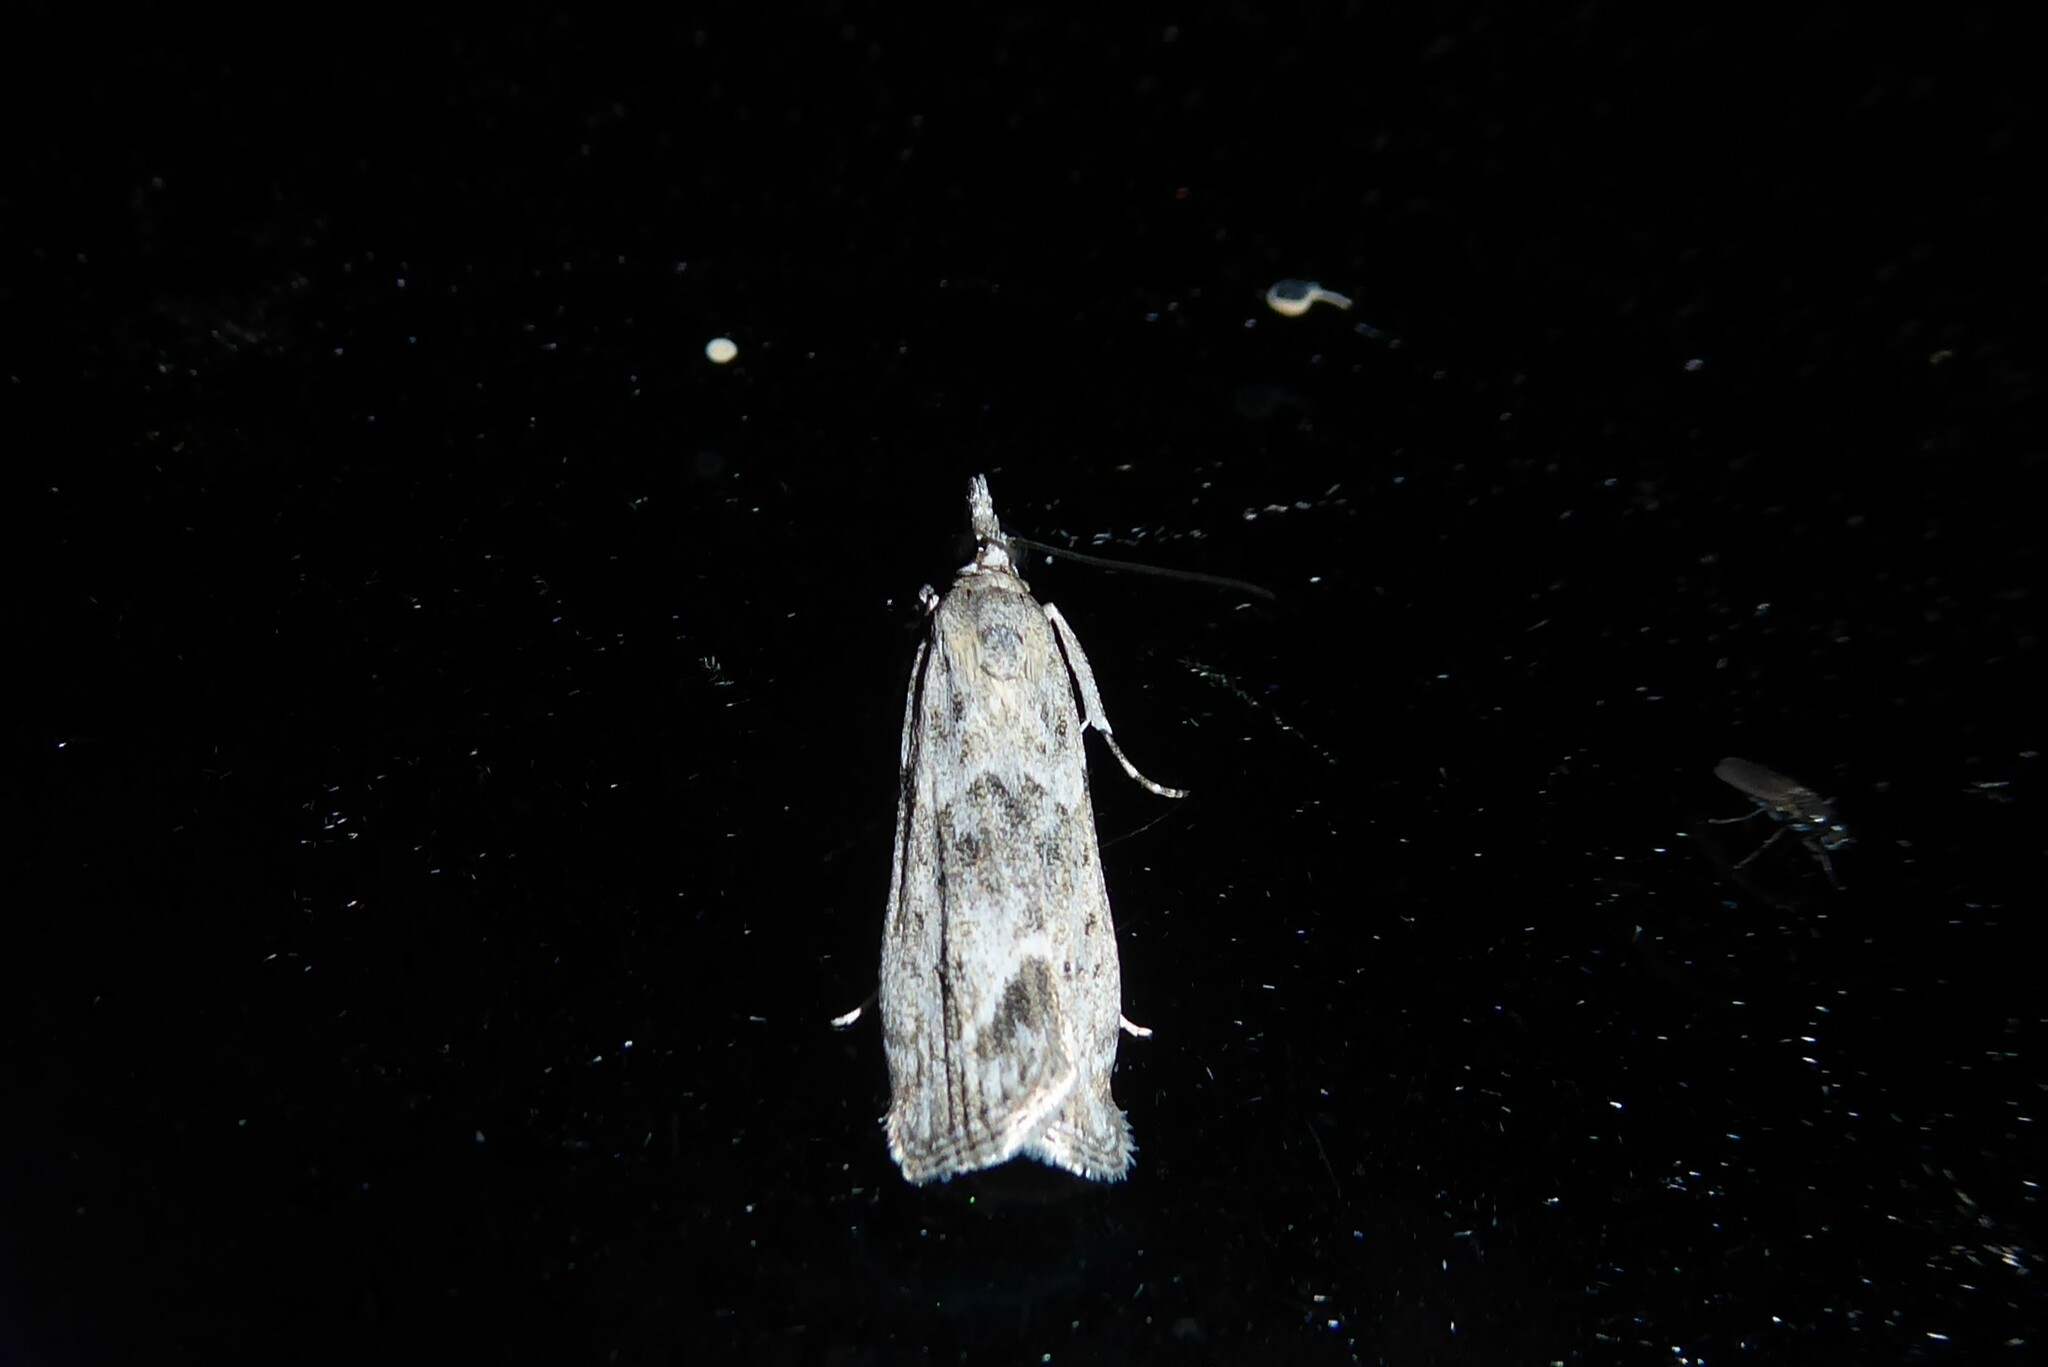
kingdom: Animalia
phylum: Arthropoda
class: Insecta
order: Lepidoptera
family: Crambidae
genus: Eudonia
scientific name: Eudonia rakaiensis
